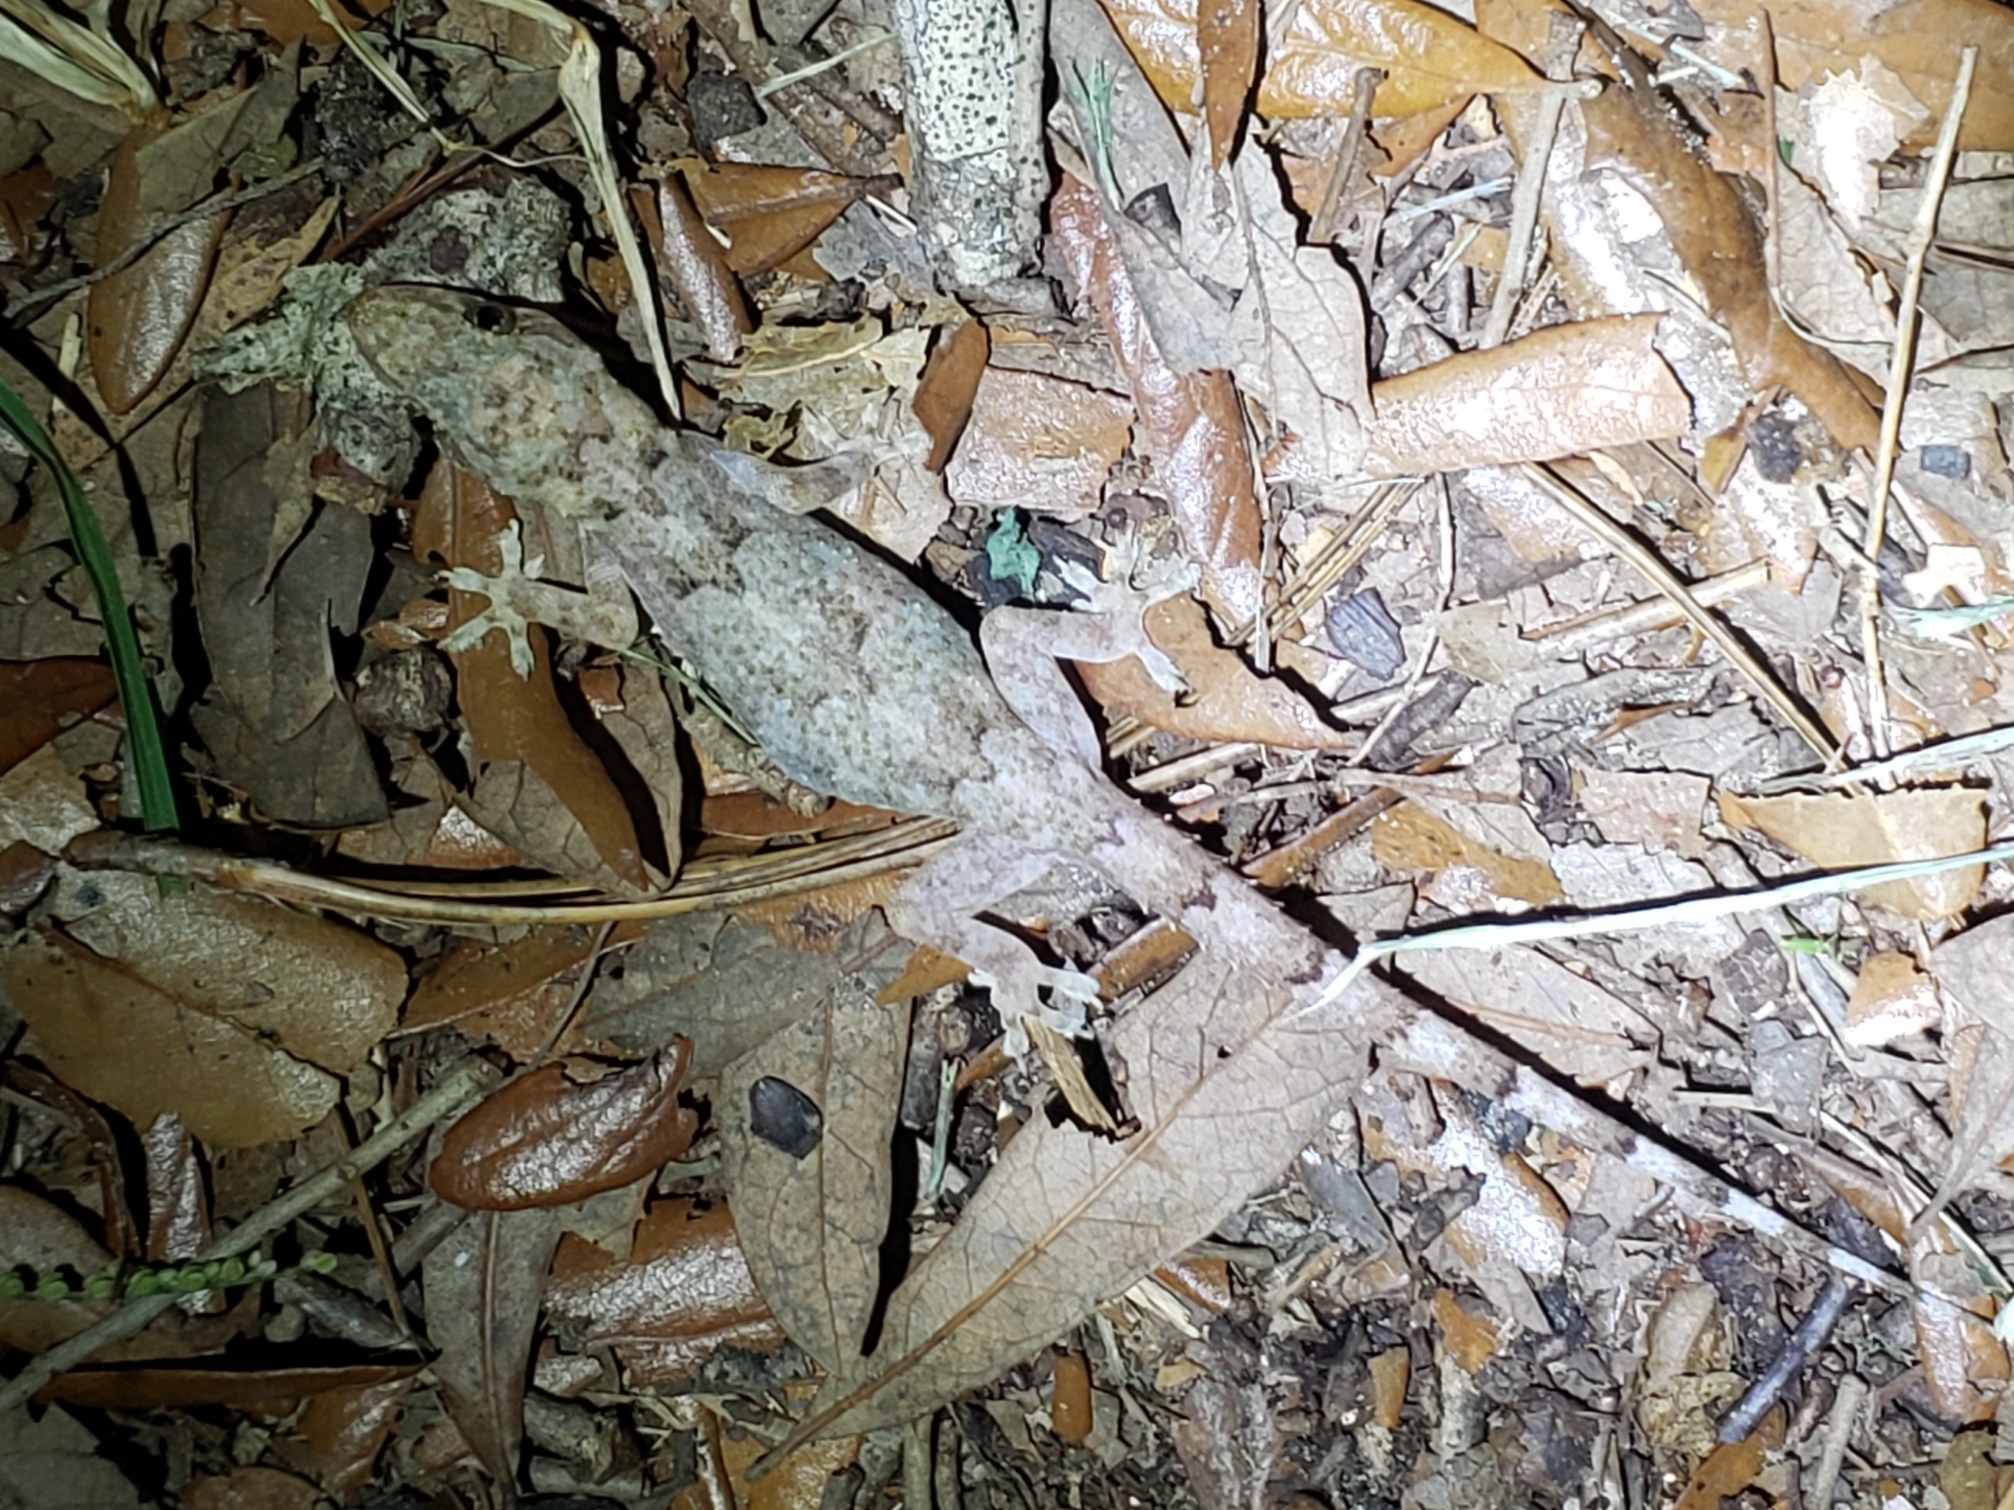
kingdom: Animalia
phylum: Chordata
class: Squamata
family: Gekkonidae
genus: Hemidactylus
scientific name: Hemidactylus mabouia
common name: House gecko
